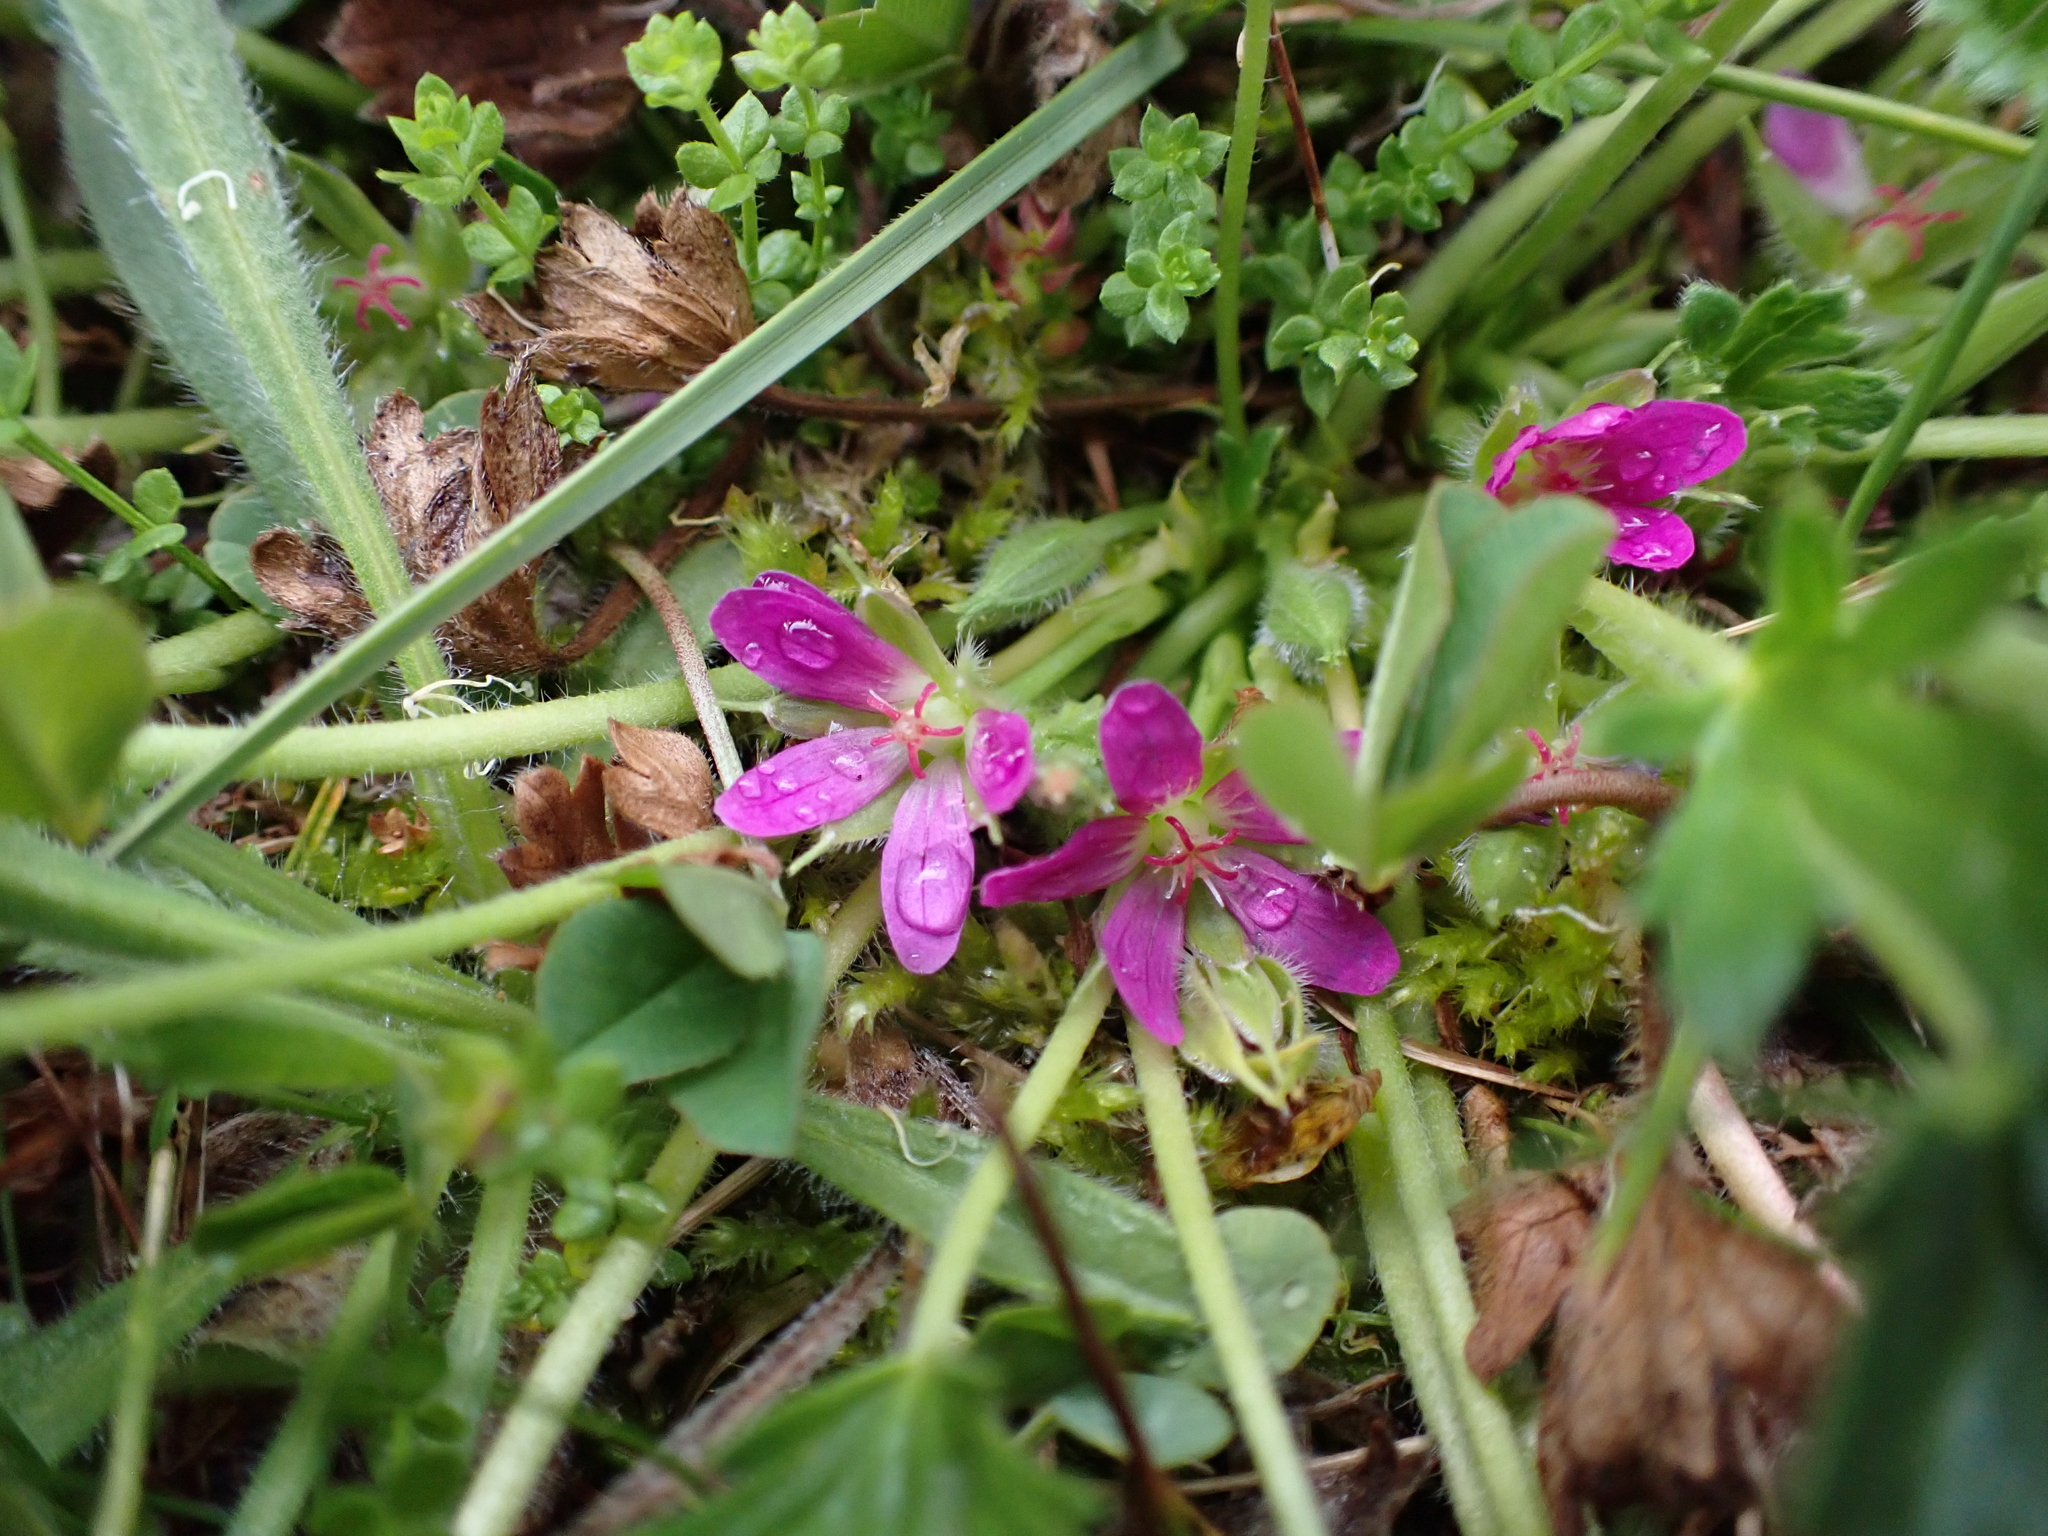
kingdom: Plantae
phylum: Tracheophyta
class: Magnoliopsida
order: Geraniales
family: Geraniaceae
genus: Geranium
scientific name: Geranium brevicaule
